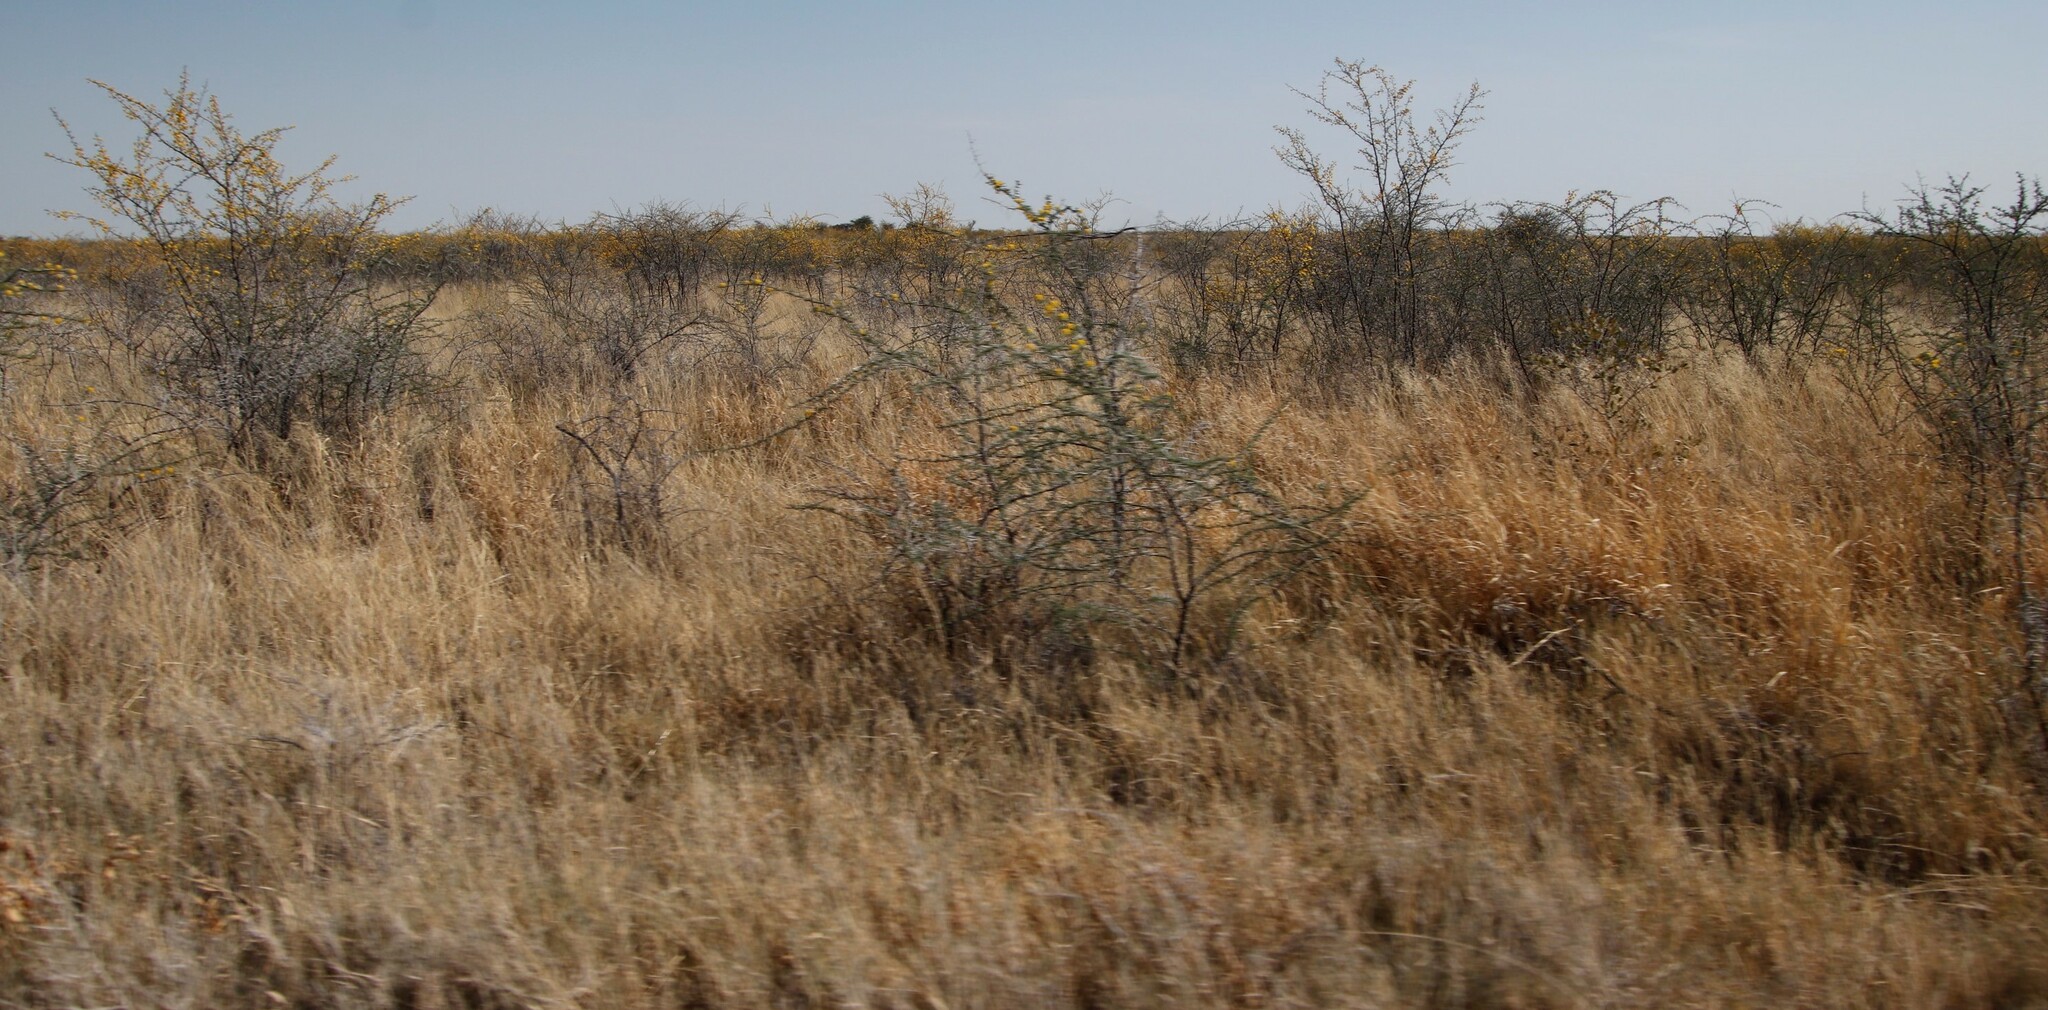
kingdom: Plantae
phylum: Tracheophyta
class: Magnoliopsida
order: Fabales
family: Fabaceae
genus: Vachellia
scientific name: Vachellia nebrownii
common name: Water acacia
